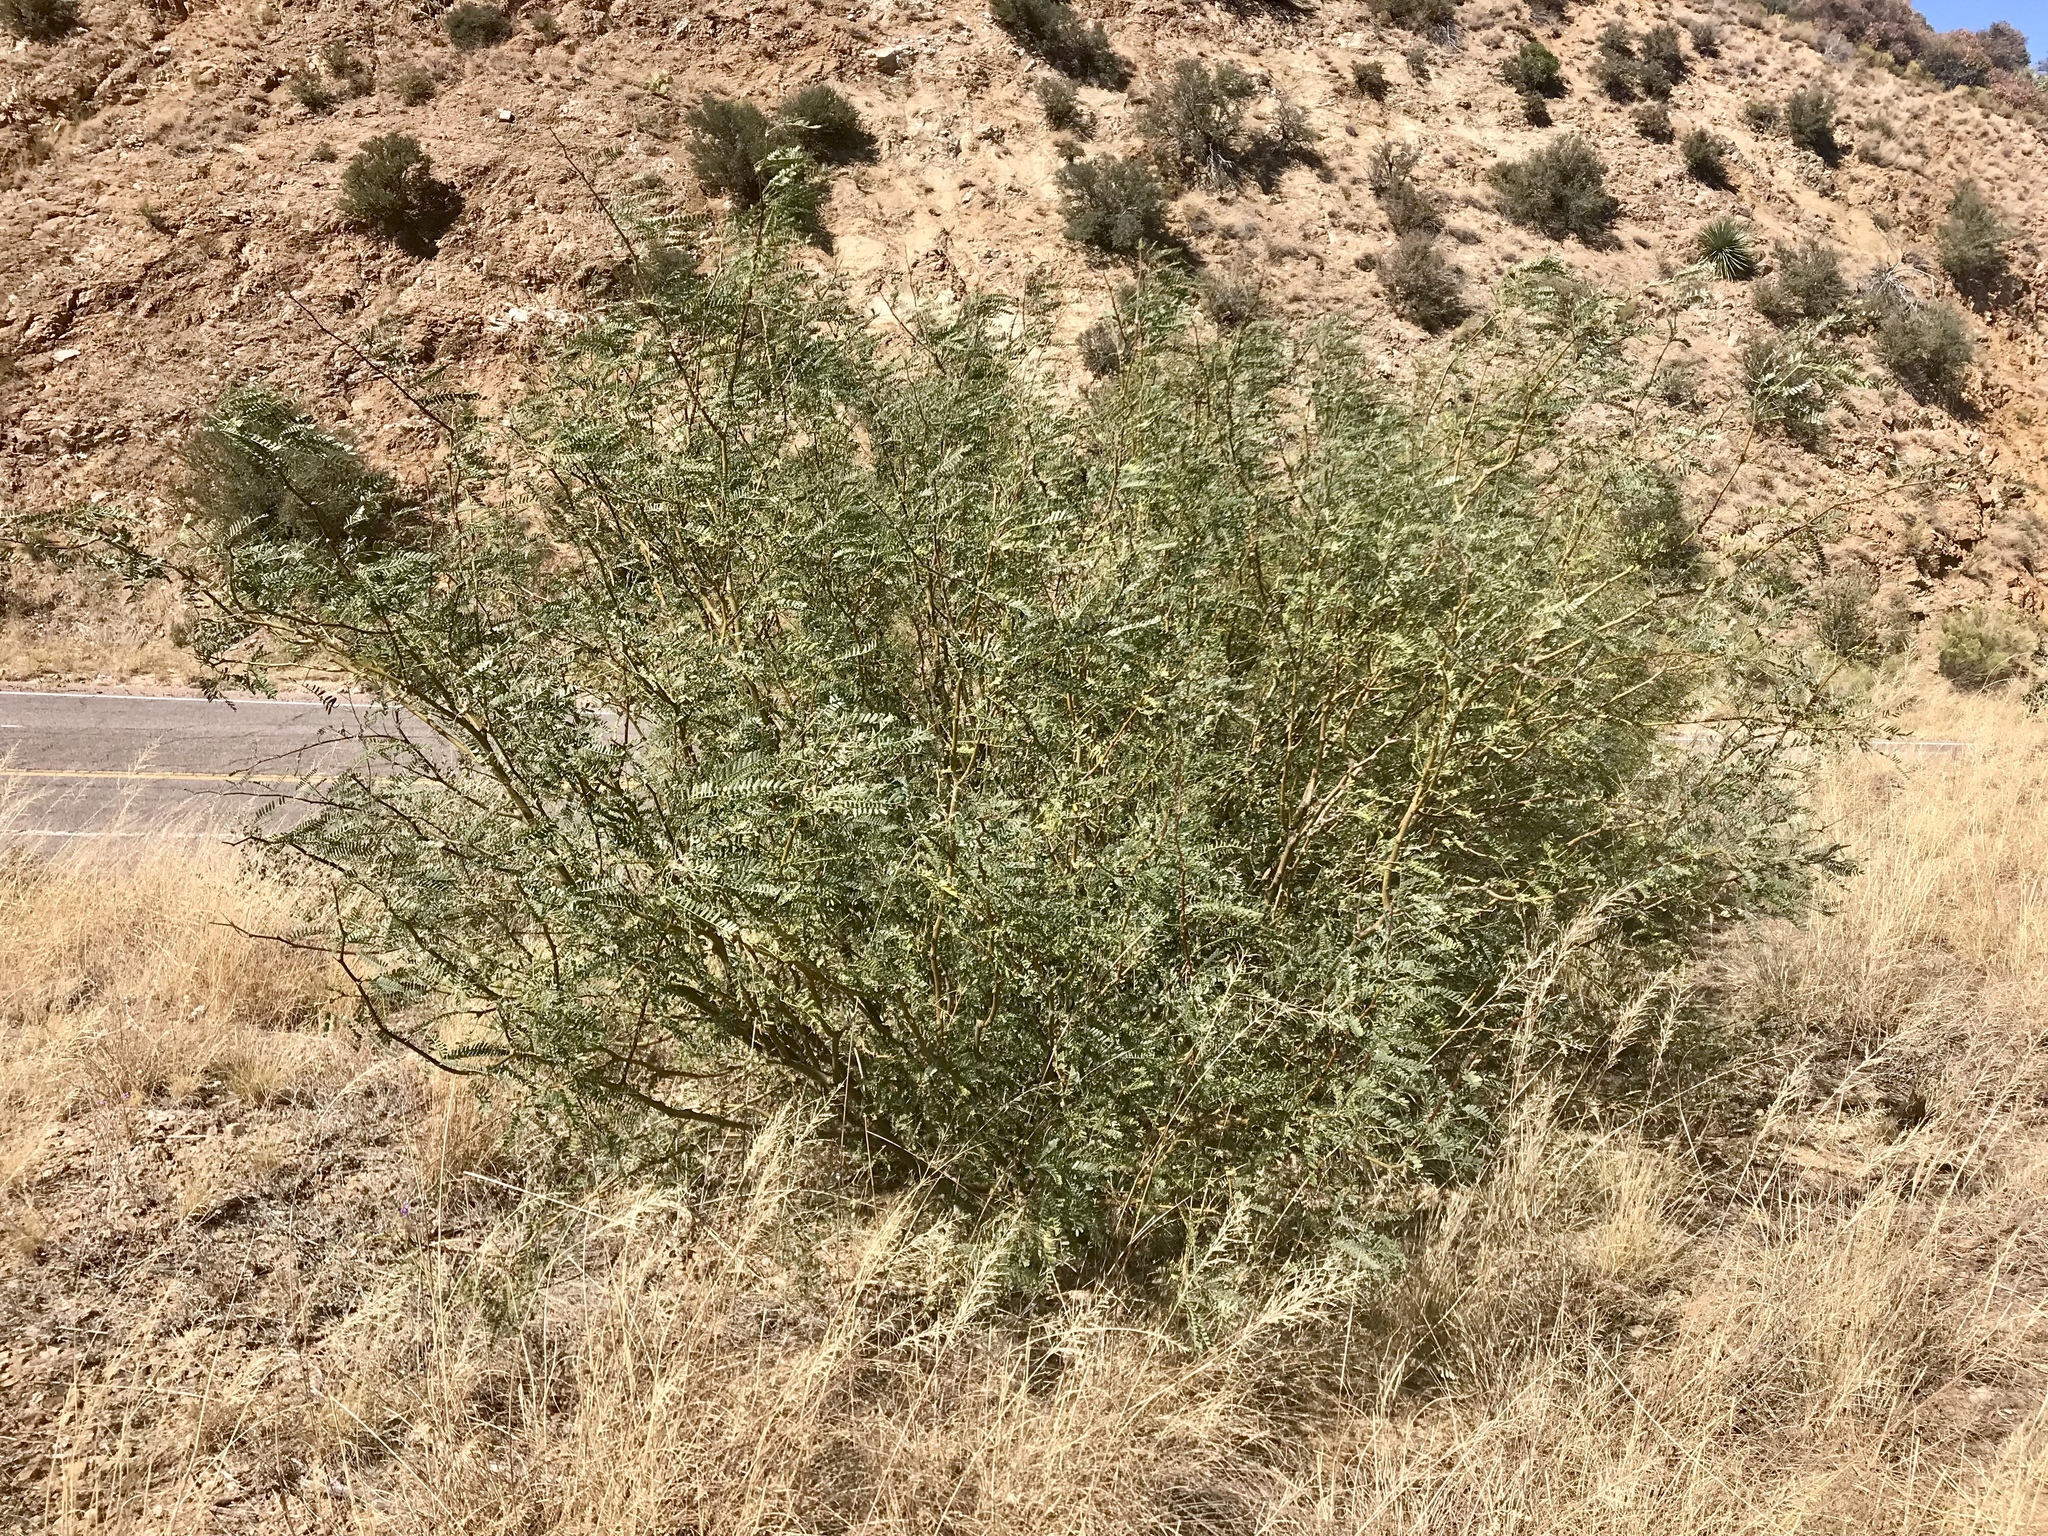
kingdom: Plantae
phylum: Tracheophyta
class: Magnoliopsida
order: Fabales
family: Fabaceae
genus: Prosopis
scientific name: Prosopis velutina
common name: Velvet mesquite
